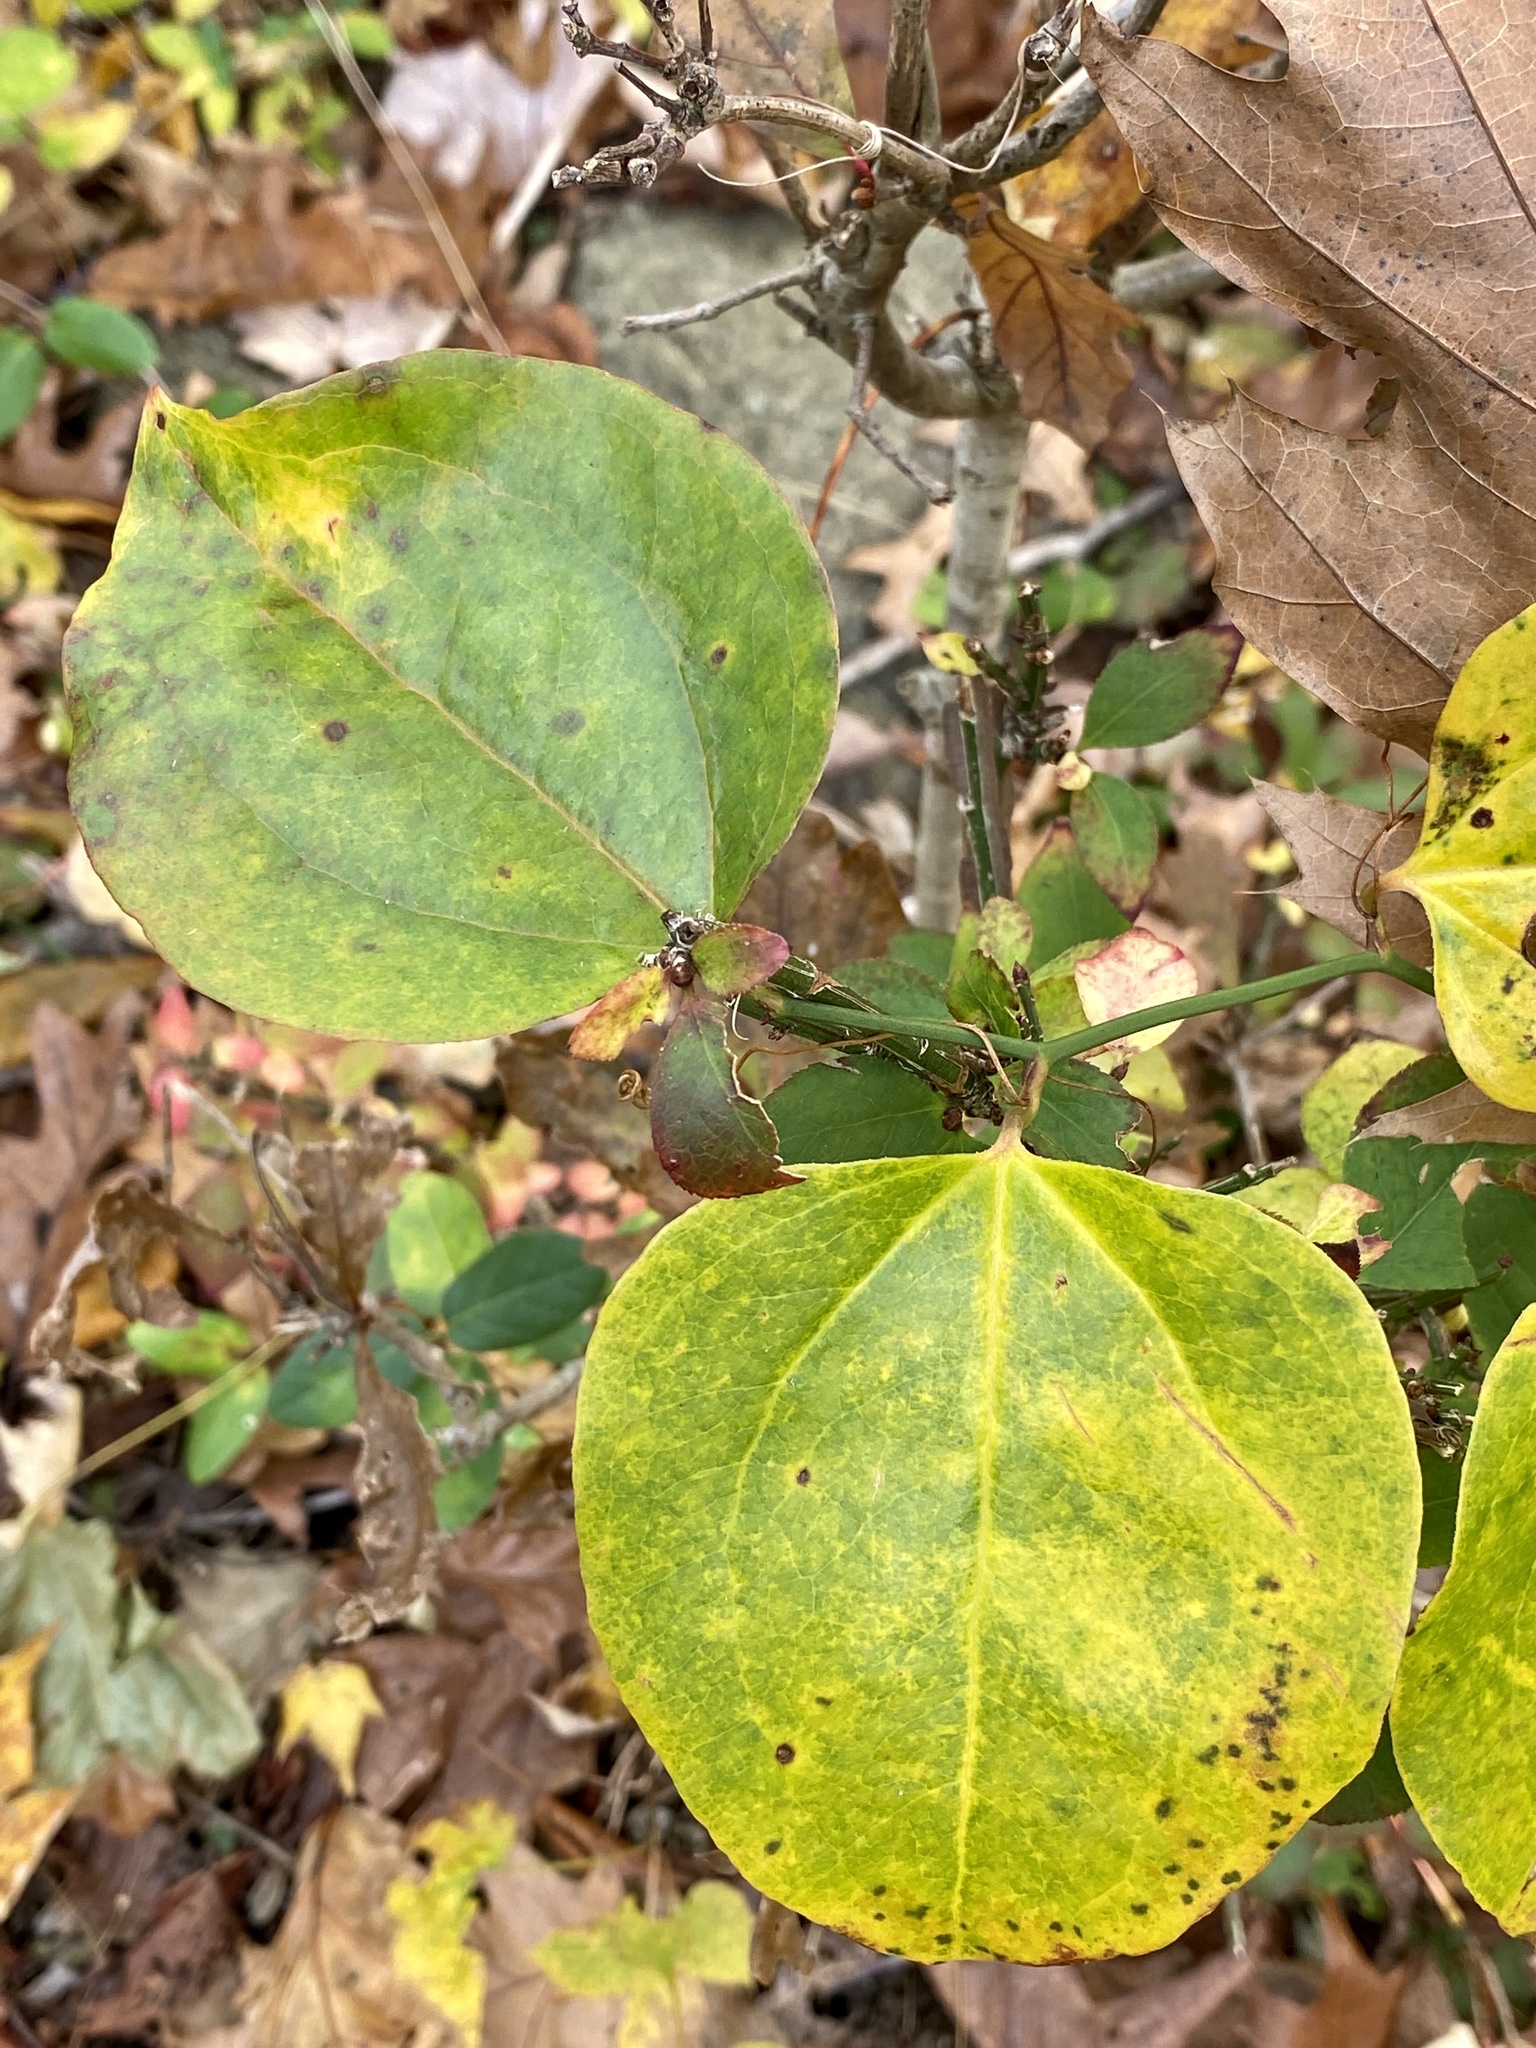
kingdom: Plantae
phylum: Tracheophyta
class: Liliopsida
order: Liliales
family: Smilacaceae
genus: Smilax
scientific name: Smilax rotundifolia
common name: Bullbriar
